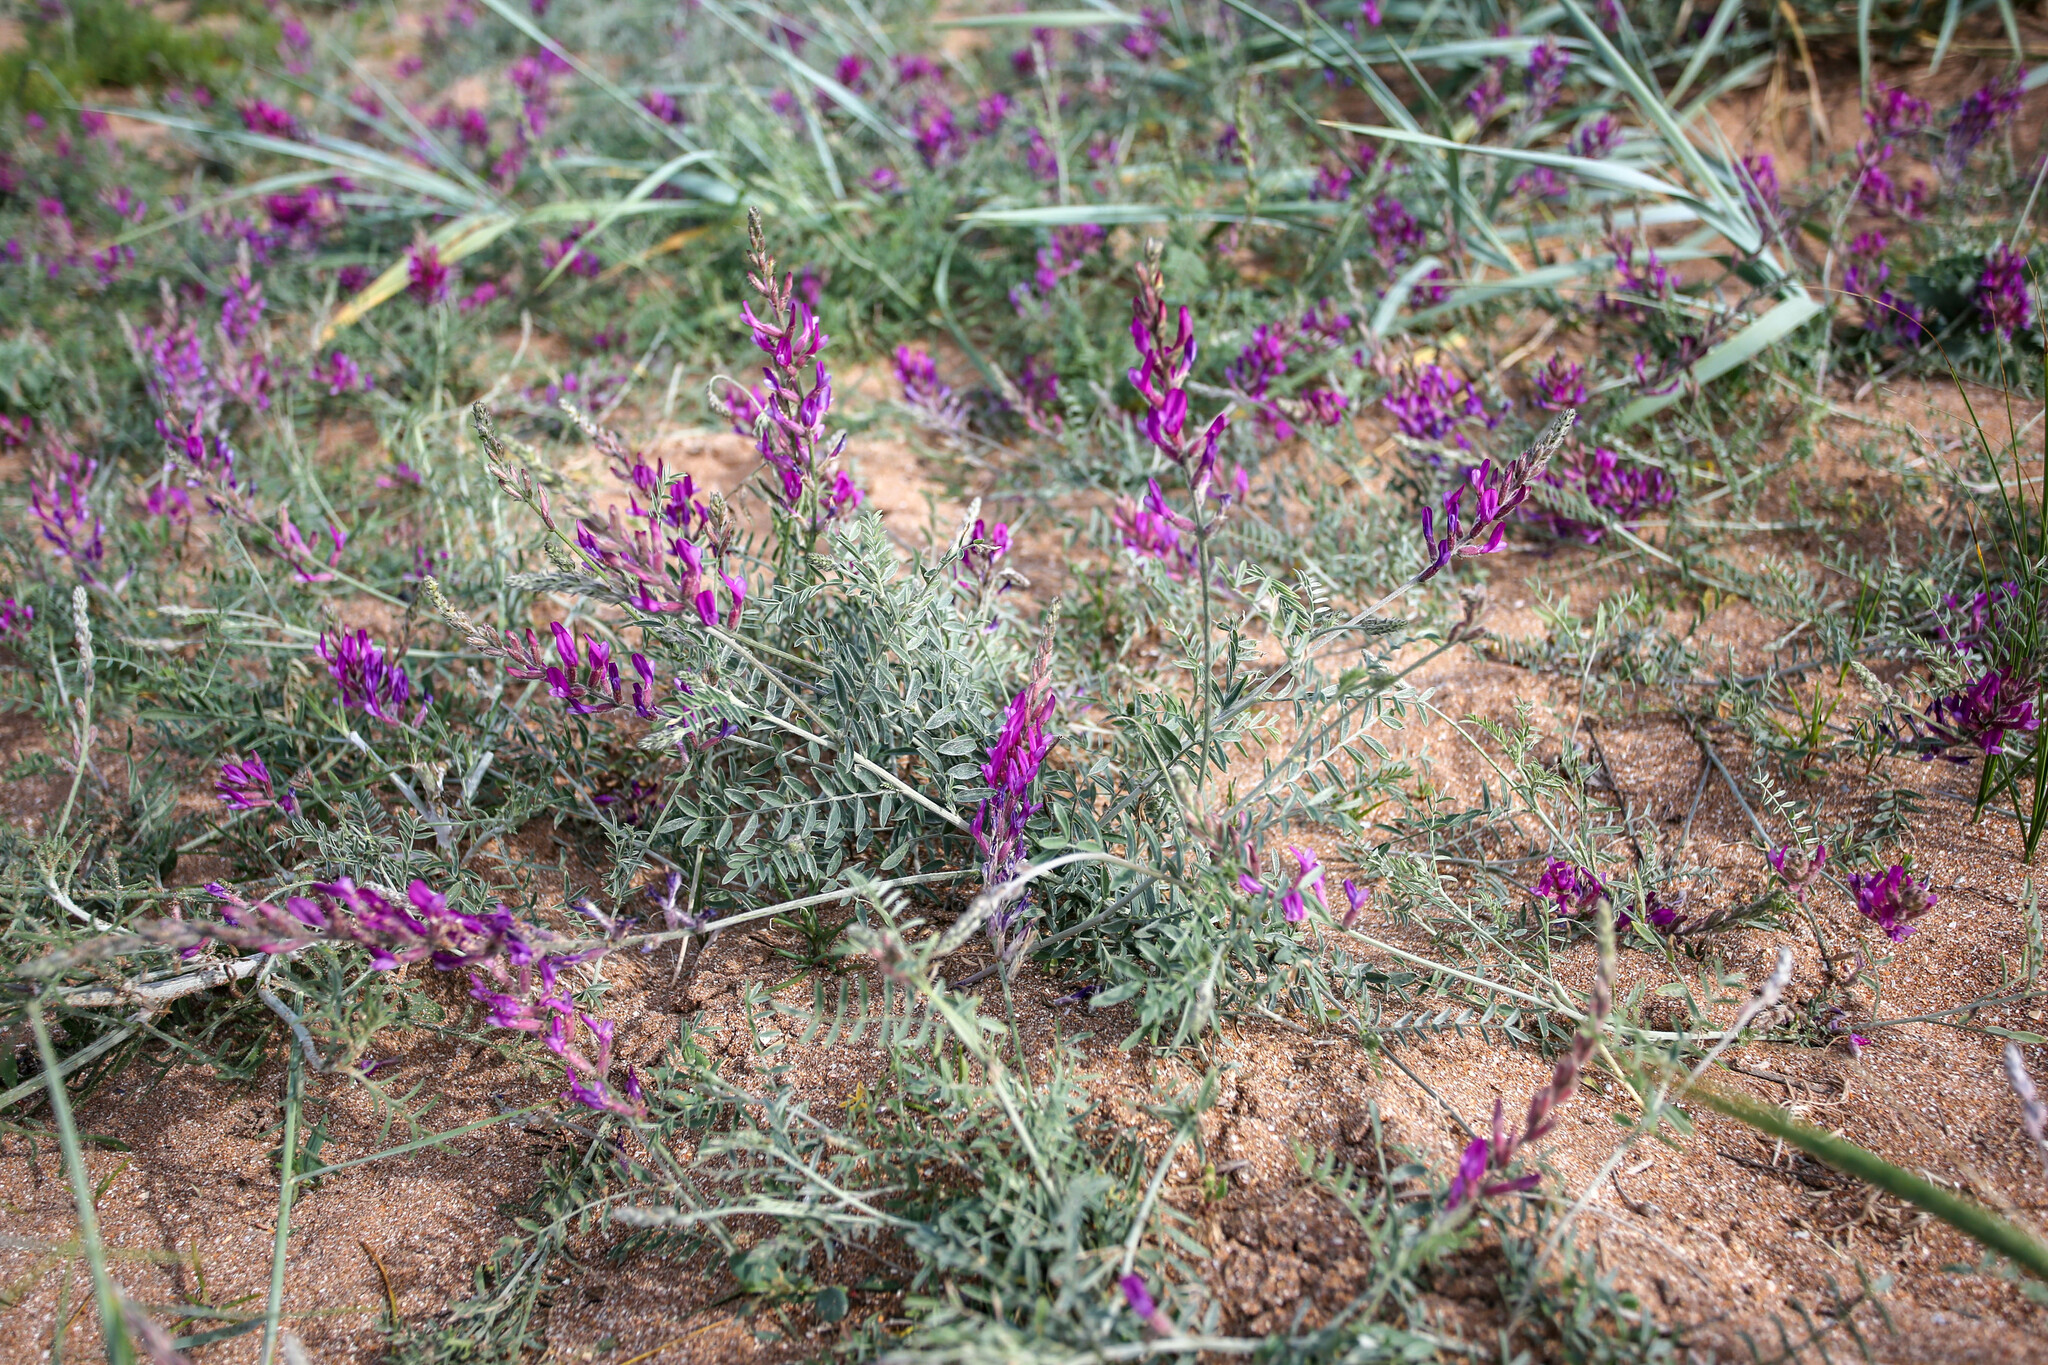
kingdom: Plantae
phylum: Tracheophyta
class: Magnoliopsida
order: Fabales
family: Fabaceae
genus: Astragalus
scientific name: Astragalus varius
